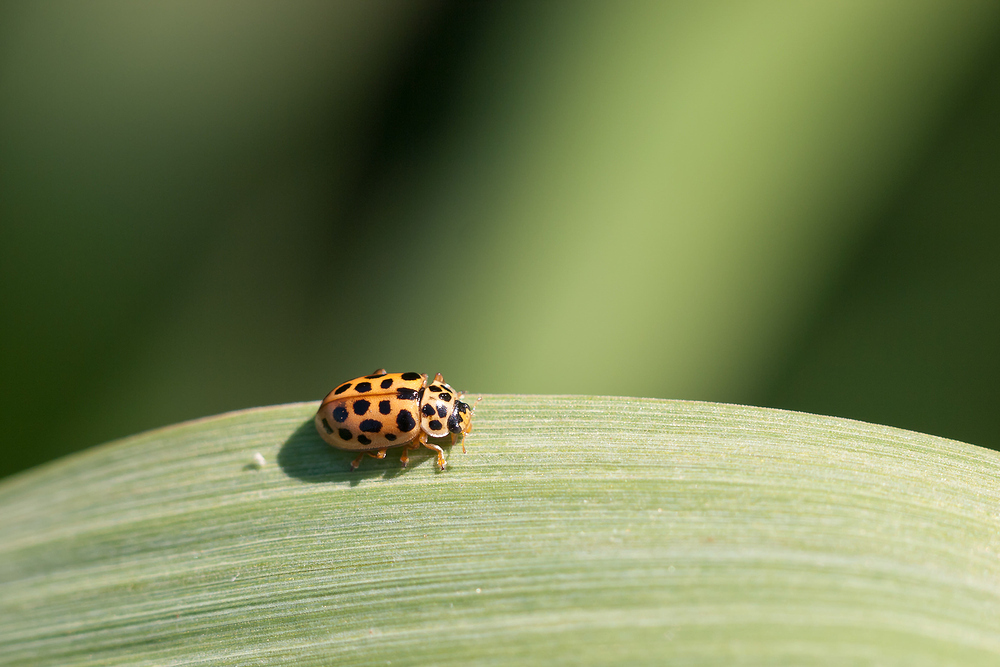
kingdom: Animalia
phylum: Arthropoda
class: Insecta
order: Coleoptera
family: Coccinellidae
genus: Anisosticta
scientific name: Anisosticta novemdecimpunctata
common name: Water ladybird
